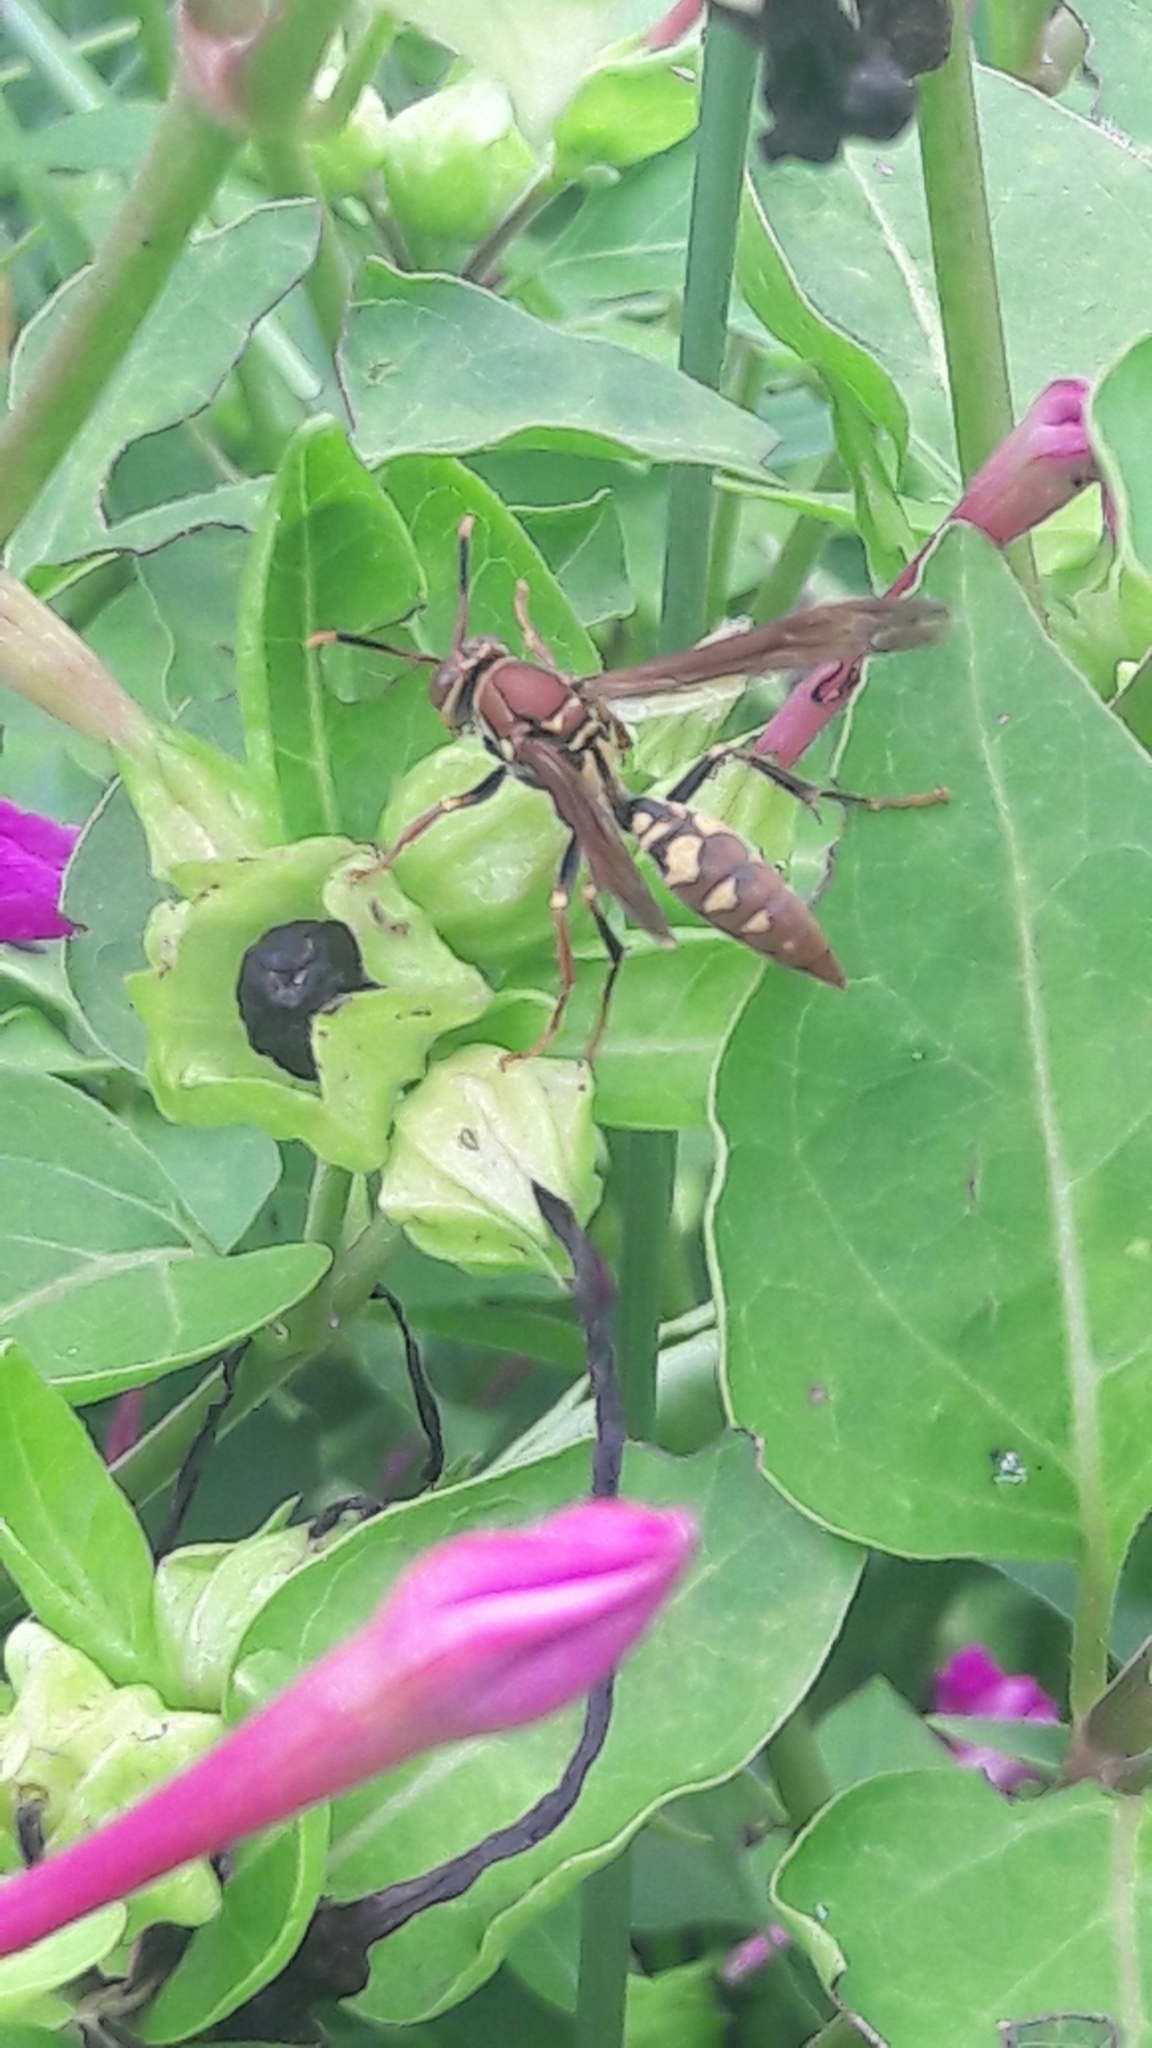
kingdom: Animalia
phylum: Arthropoda
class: Insecta
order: Hymenoptera
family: Eumenidae
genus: Polistes
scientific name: Polistes versicolor
